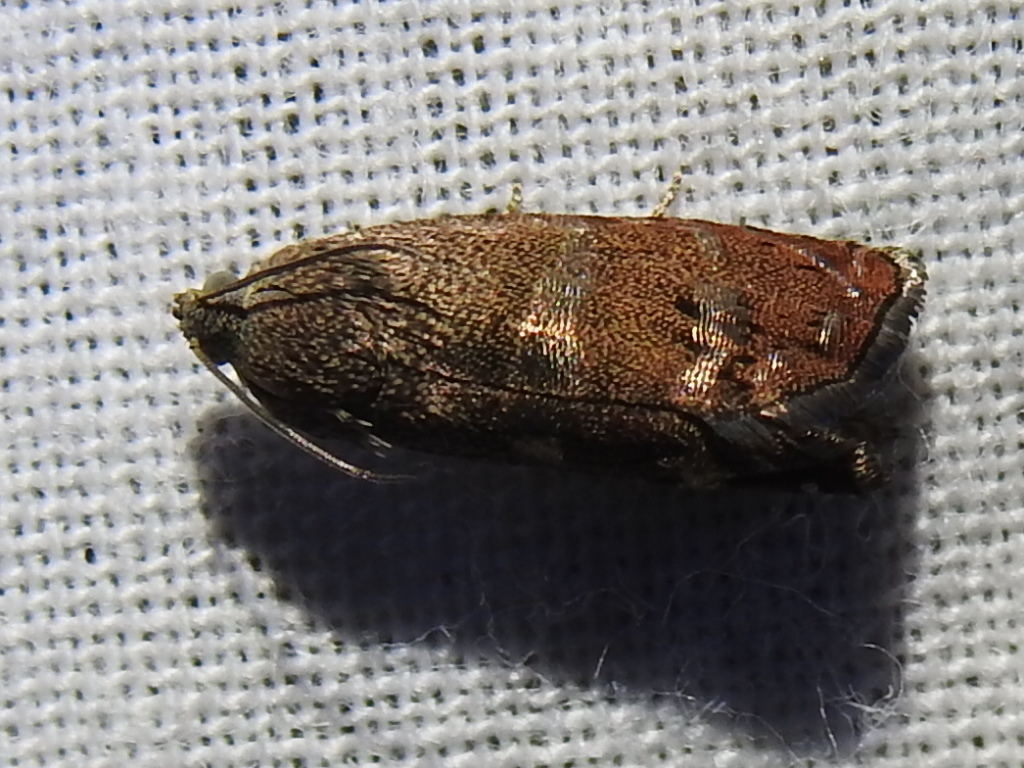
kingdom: Animalia
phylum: Arthropoda
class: Insecta
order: Lepidoptera
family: Tortricidae
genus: Cydia
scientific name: Cydia latiferreana
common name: Filbertworm moth
